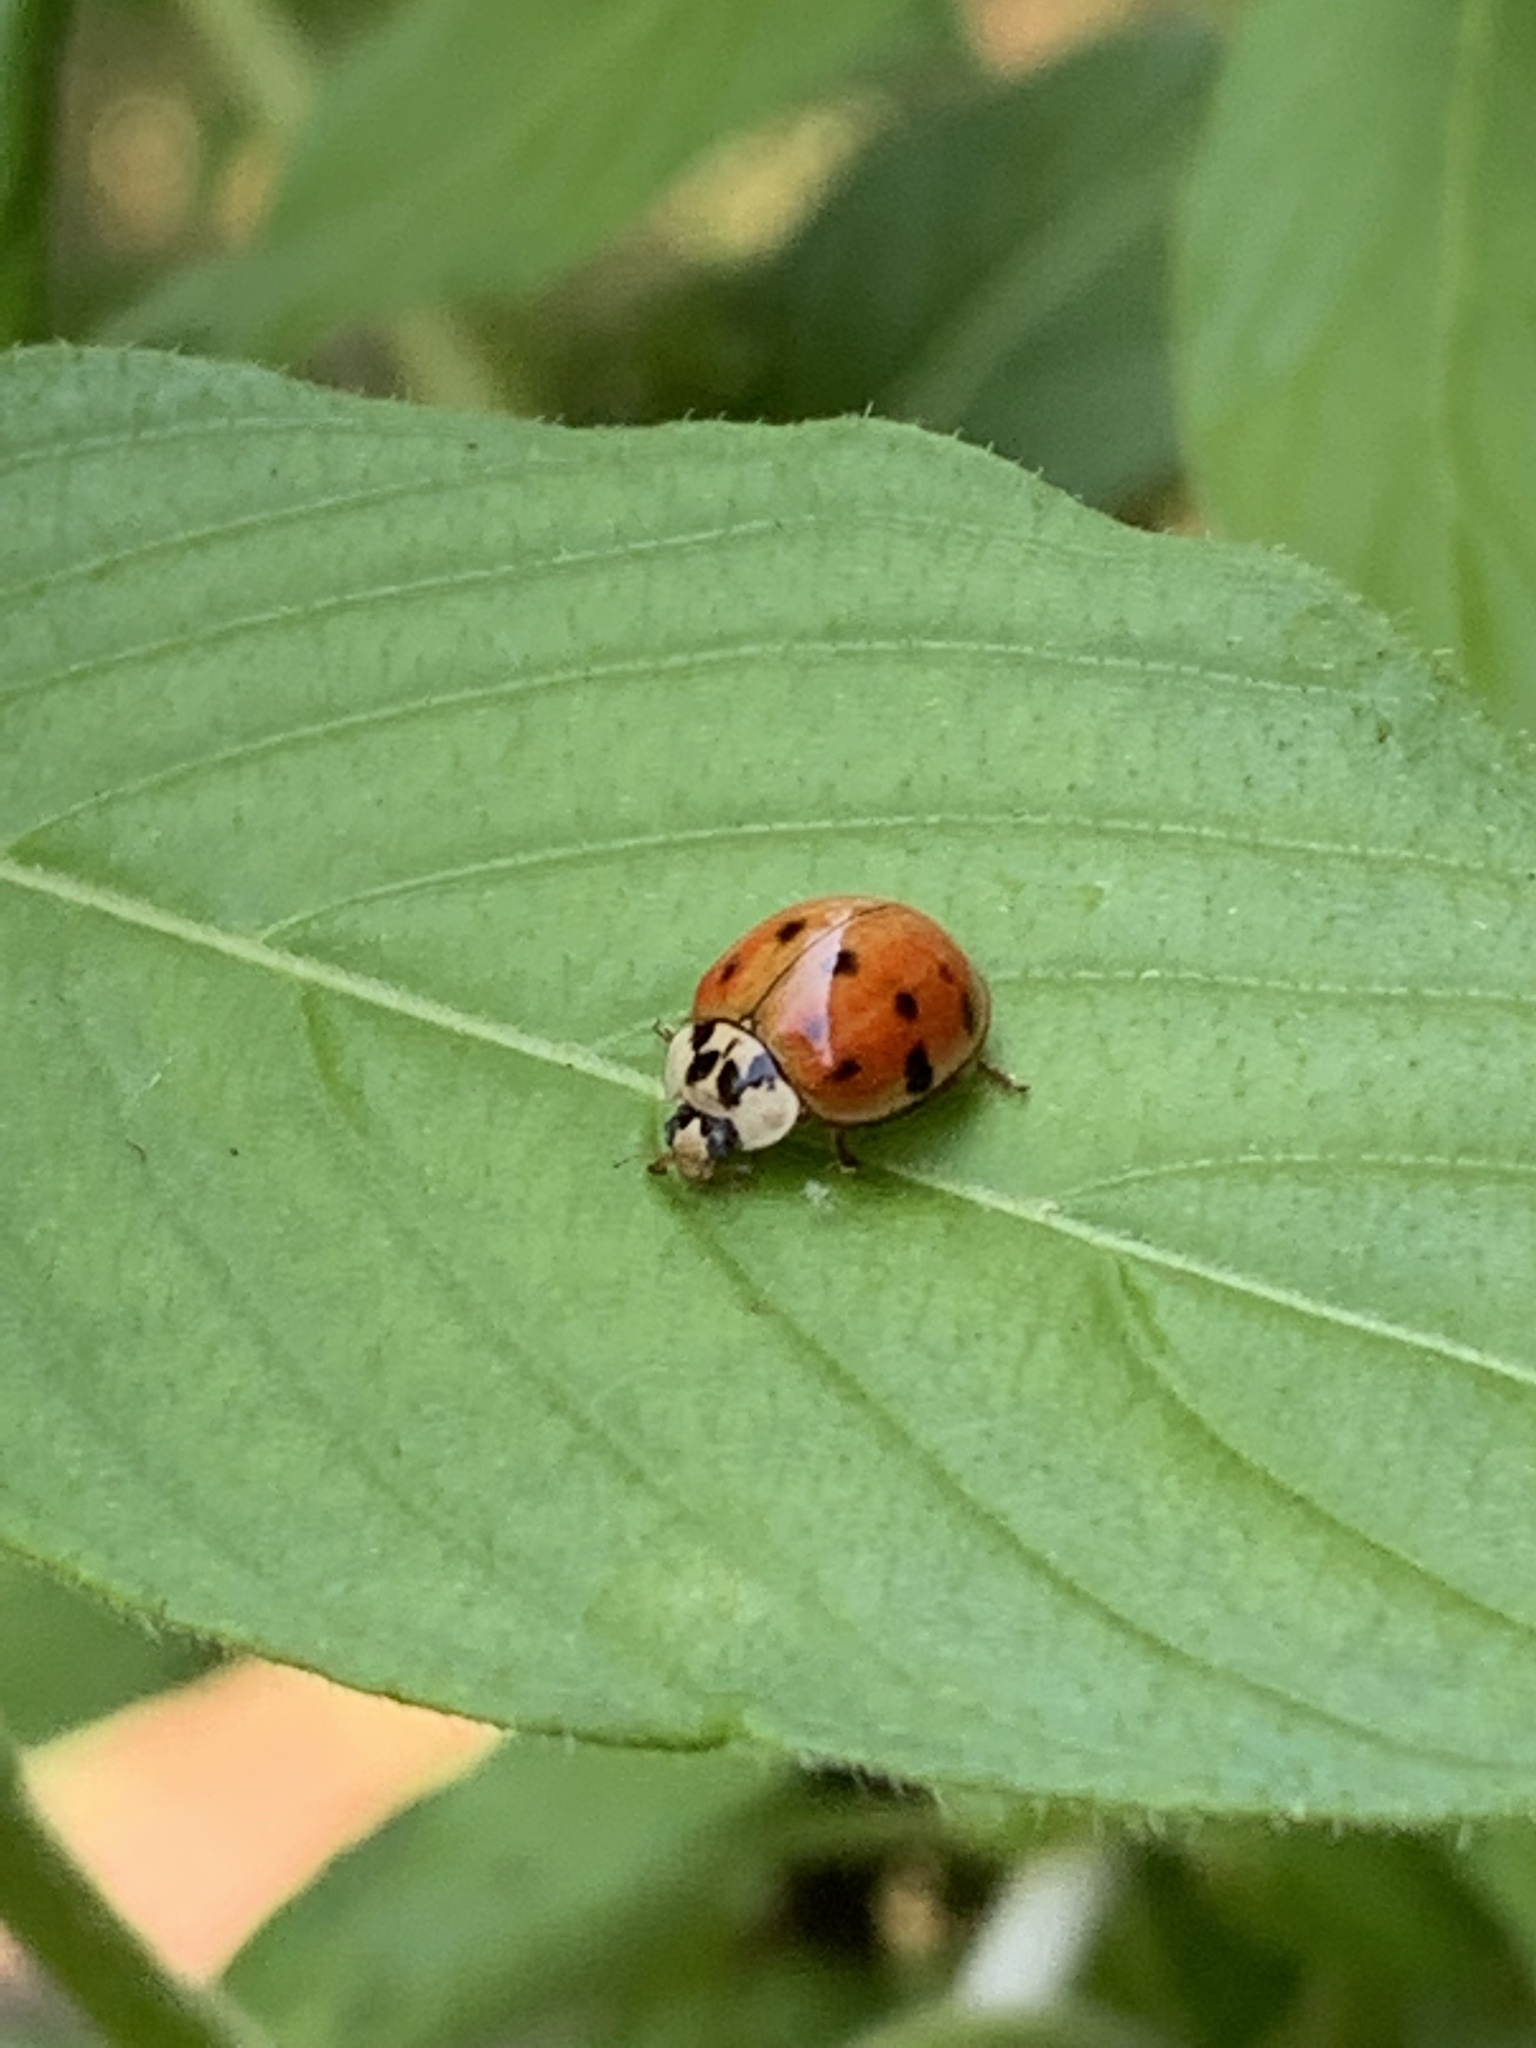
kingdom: Animalia
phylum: Arthropoda
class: Insecta
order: Coleoptera
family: Coccinellidae
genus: Harmonia
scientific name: Harmonia axyridis
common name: Harlequin ladybird
